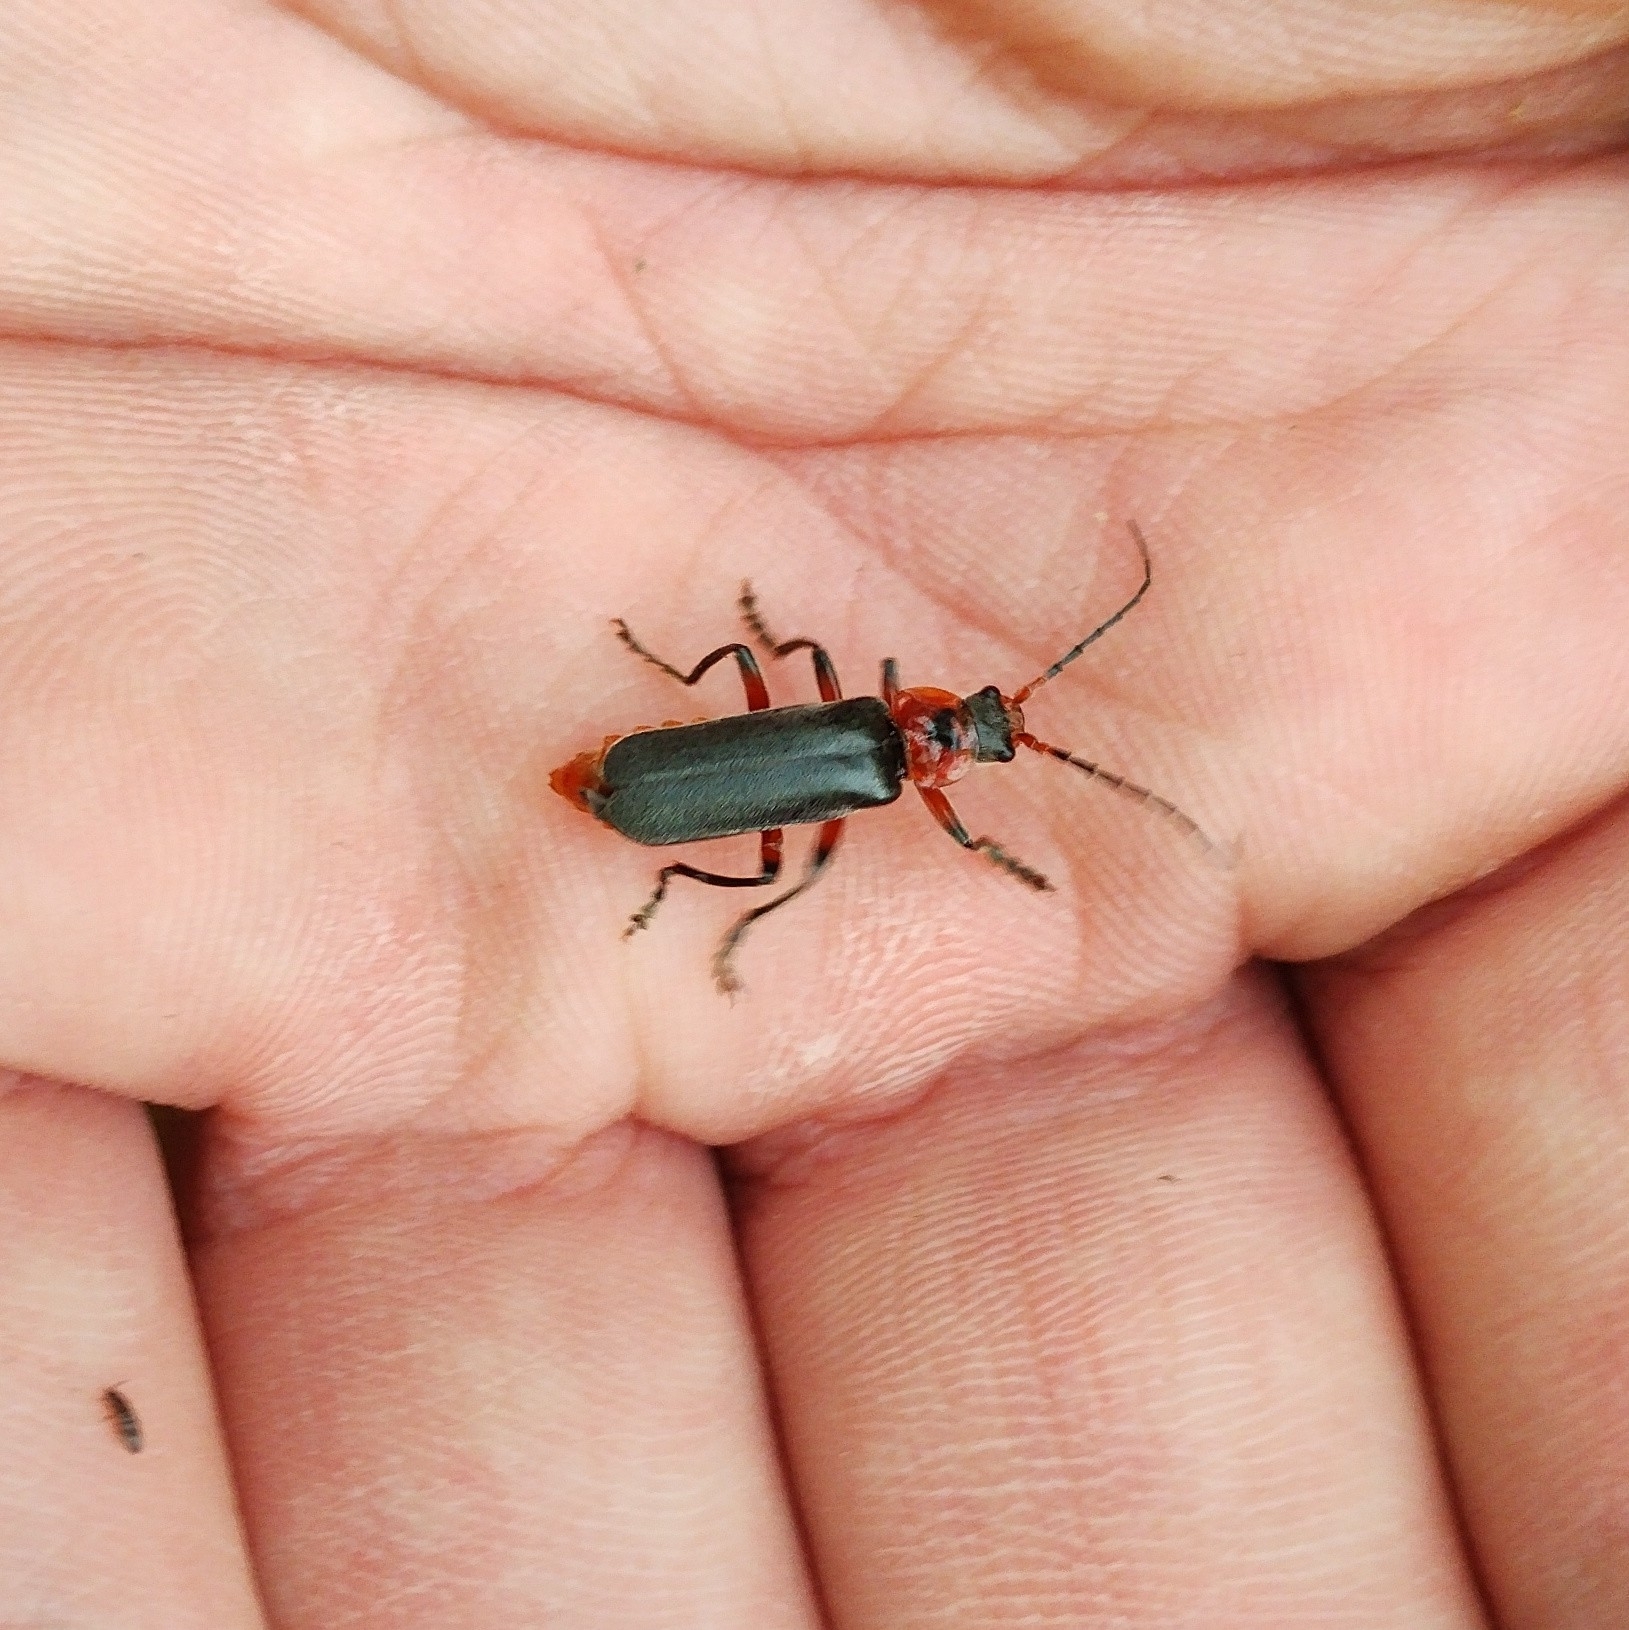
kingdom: Animalia
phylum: Arthropoda
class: Insecta
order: Coleoptera
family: Cantharidae
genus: Cantharis
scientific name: Cantharis rustica
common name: Soldier beetle
